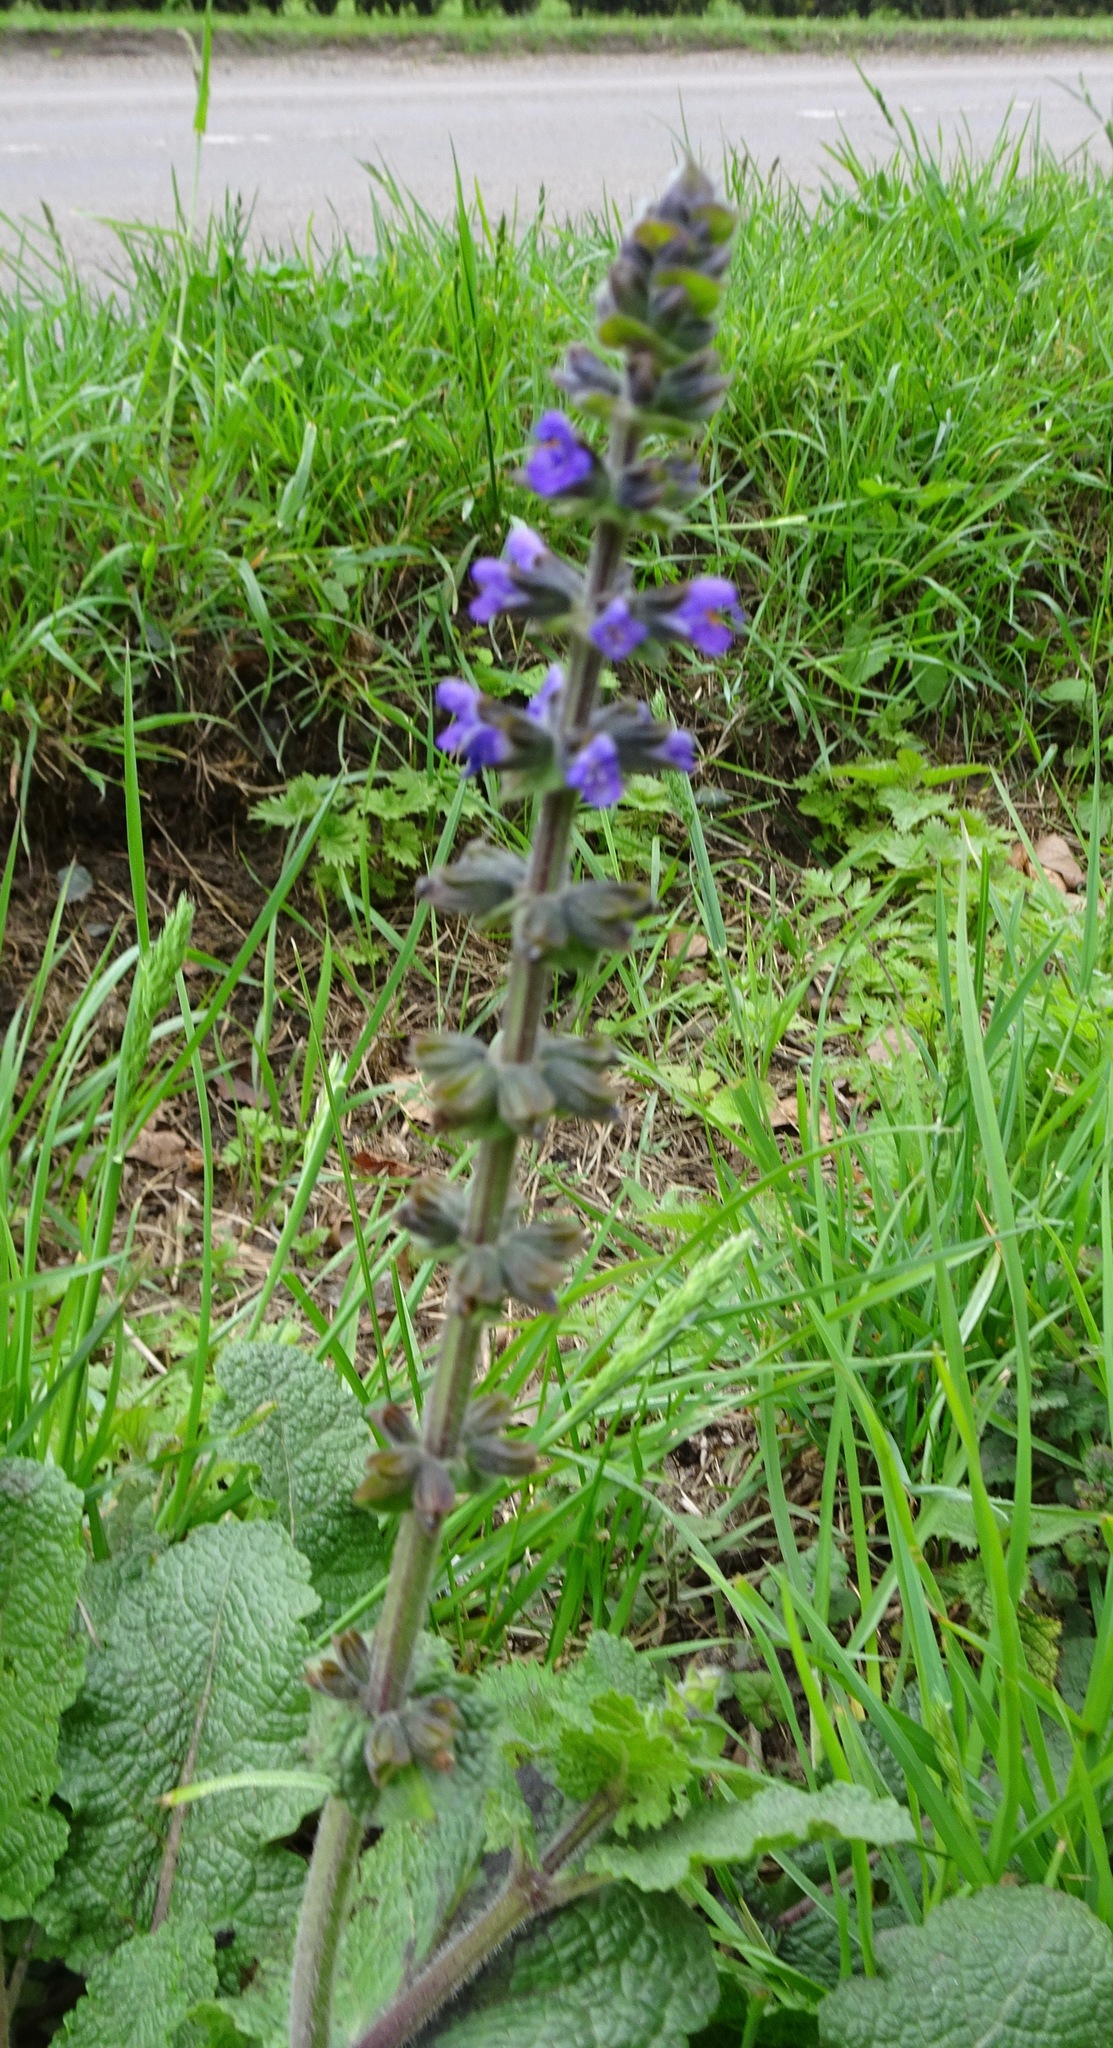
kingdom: Plantae
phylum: Tracheophyta
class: Magnoliopsida
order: Lamiales
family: Lamiaceae
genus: Salvia
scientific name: Salvia verbenaca
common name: Wild clary
